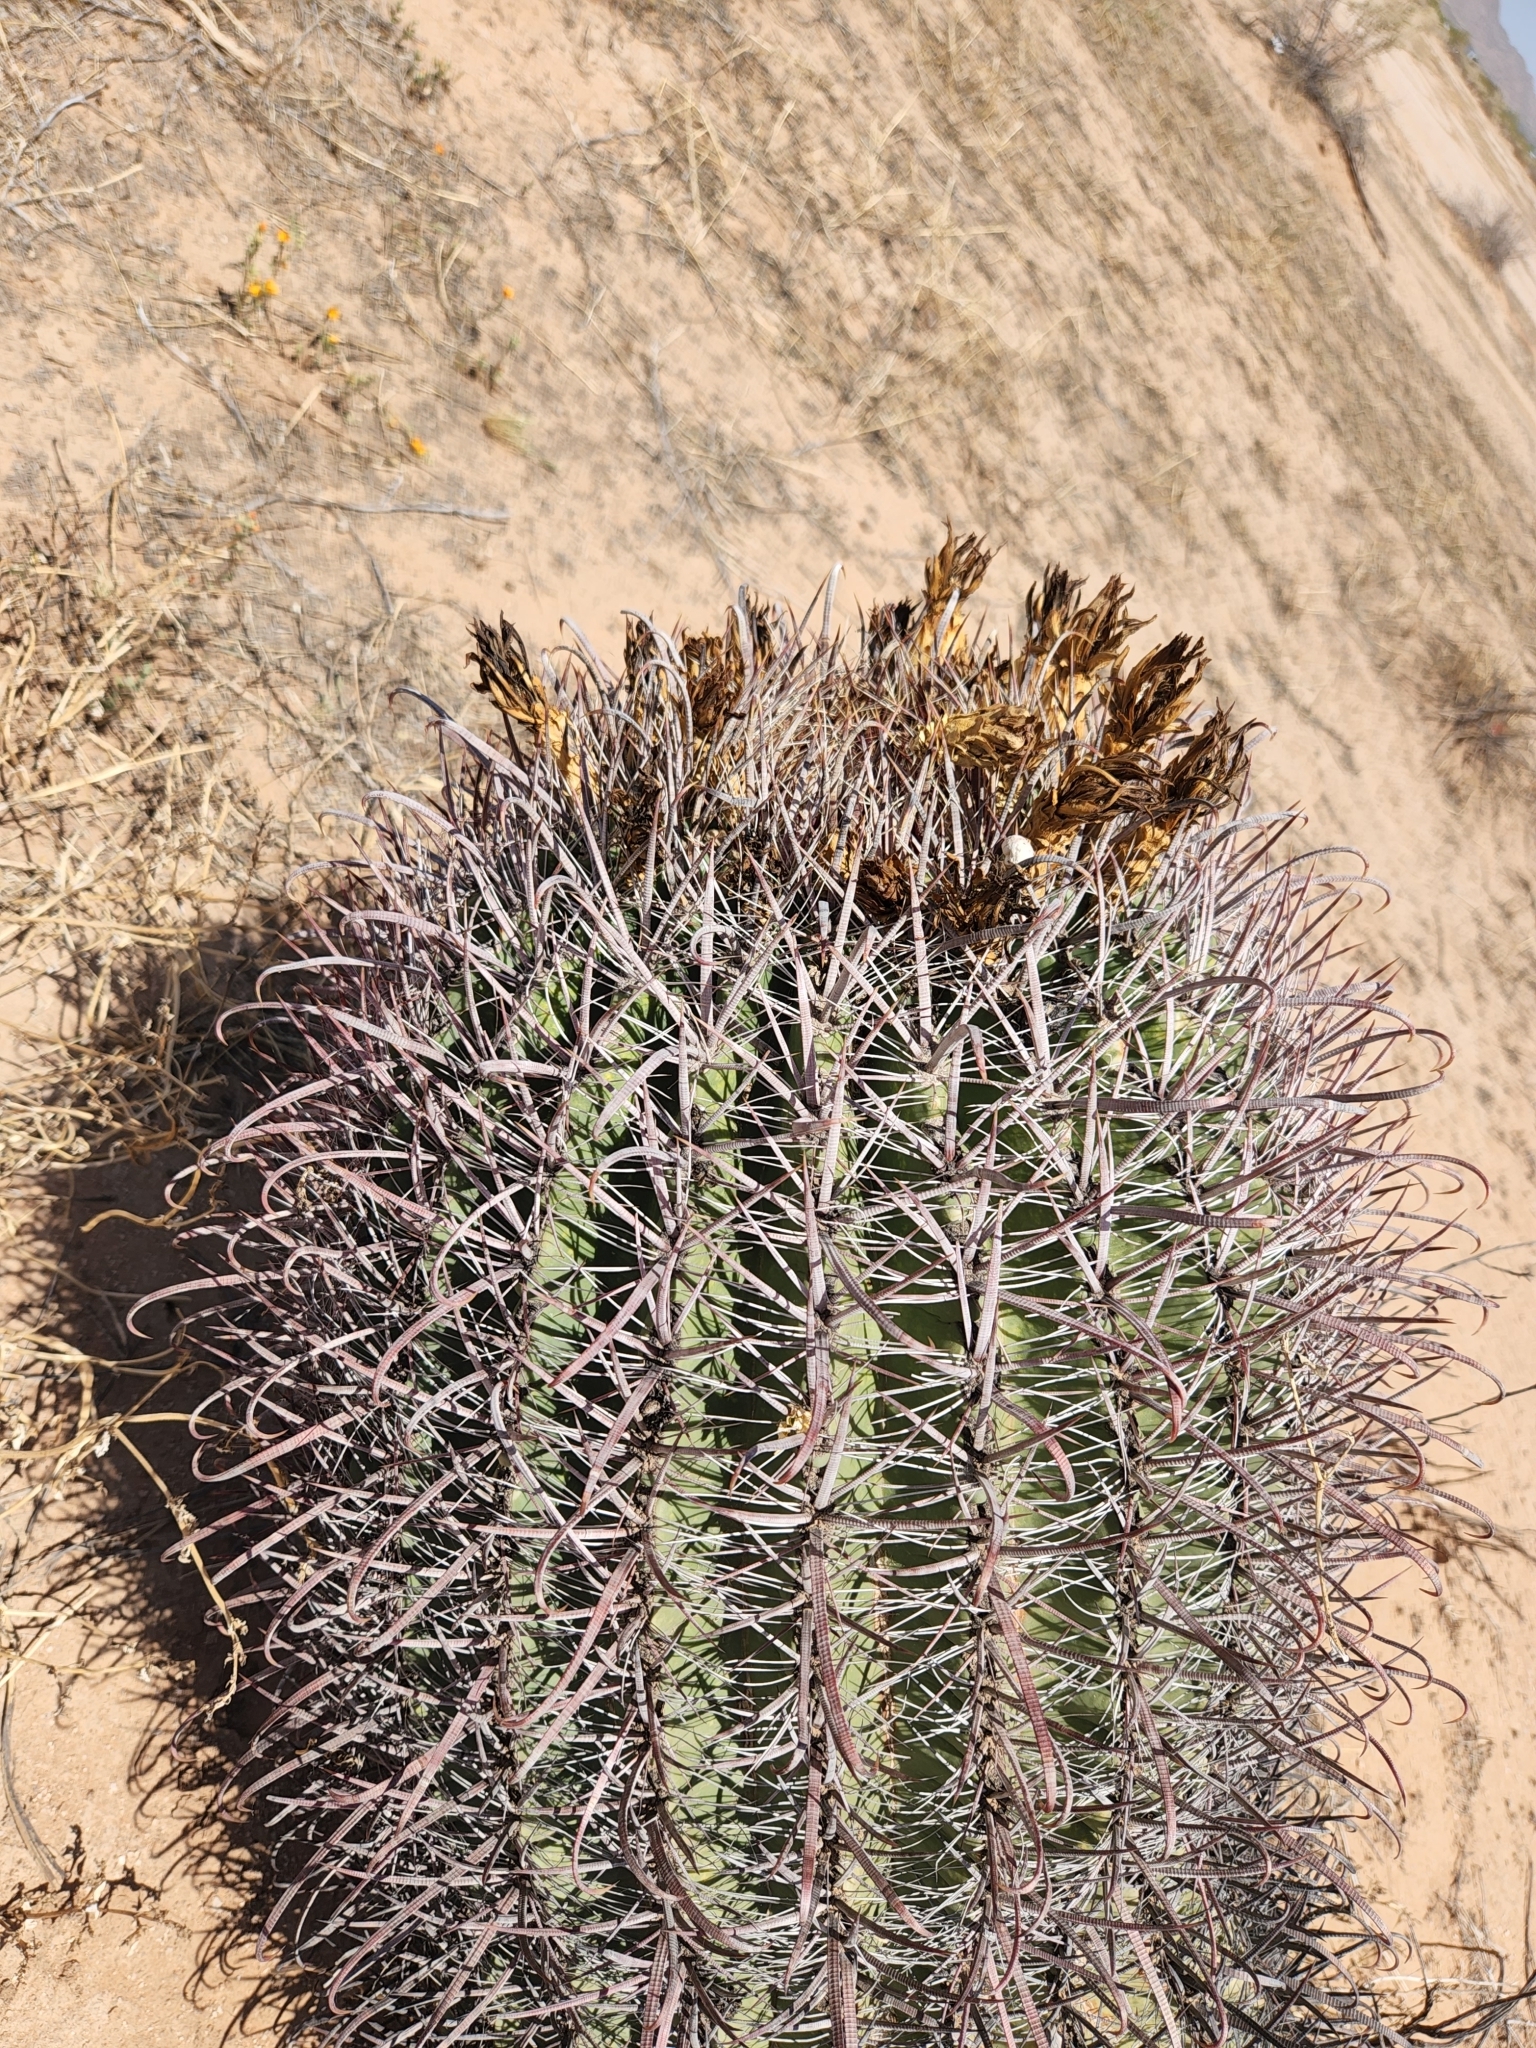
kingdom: Plantae
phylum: Tracheophyta
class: Magnoliopsida
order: Caryophyllales
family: Cactaceae
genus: Ferocactus
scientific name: Ferocactus wislizeni
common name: Candy barrel cactus
